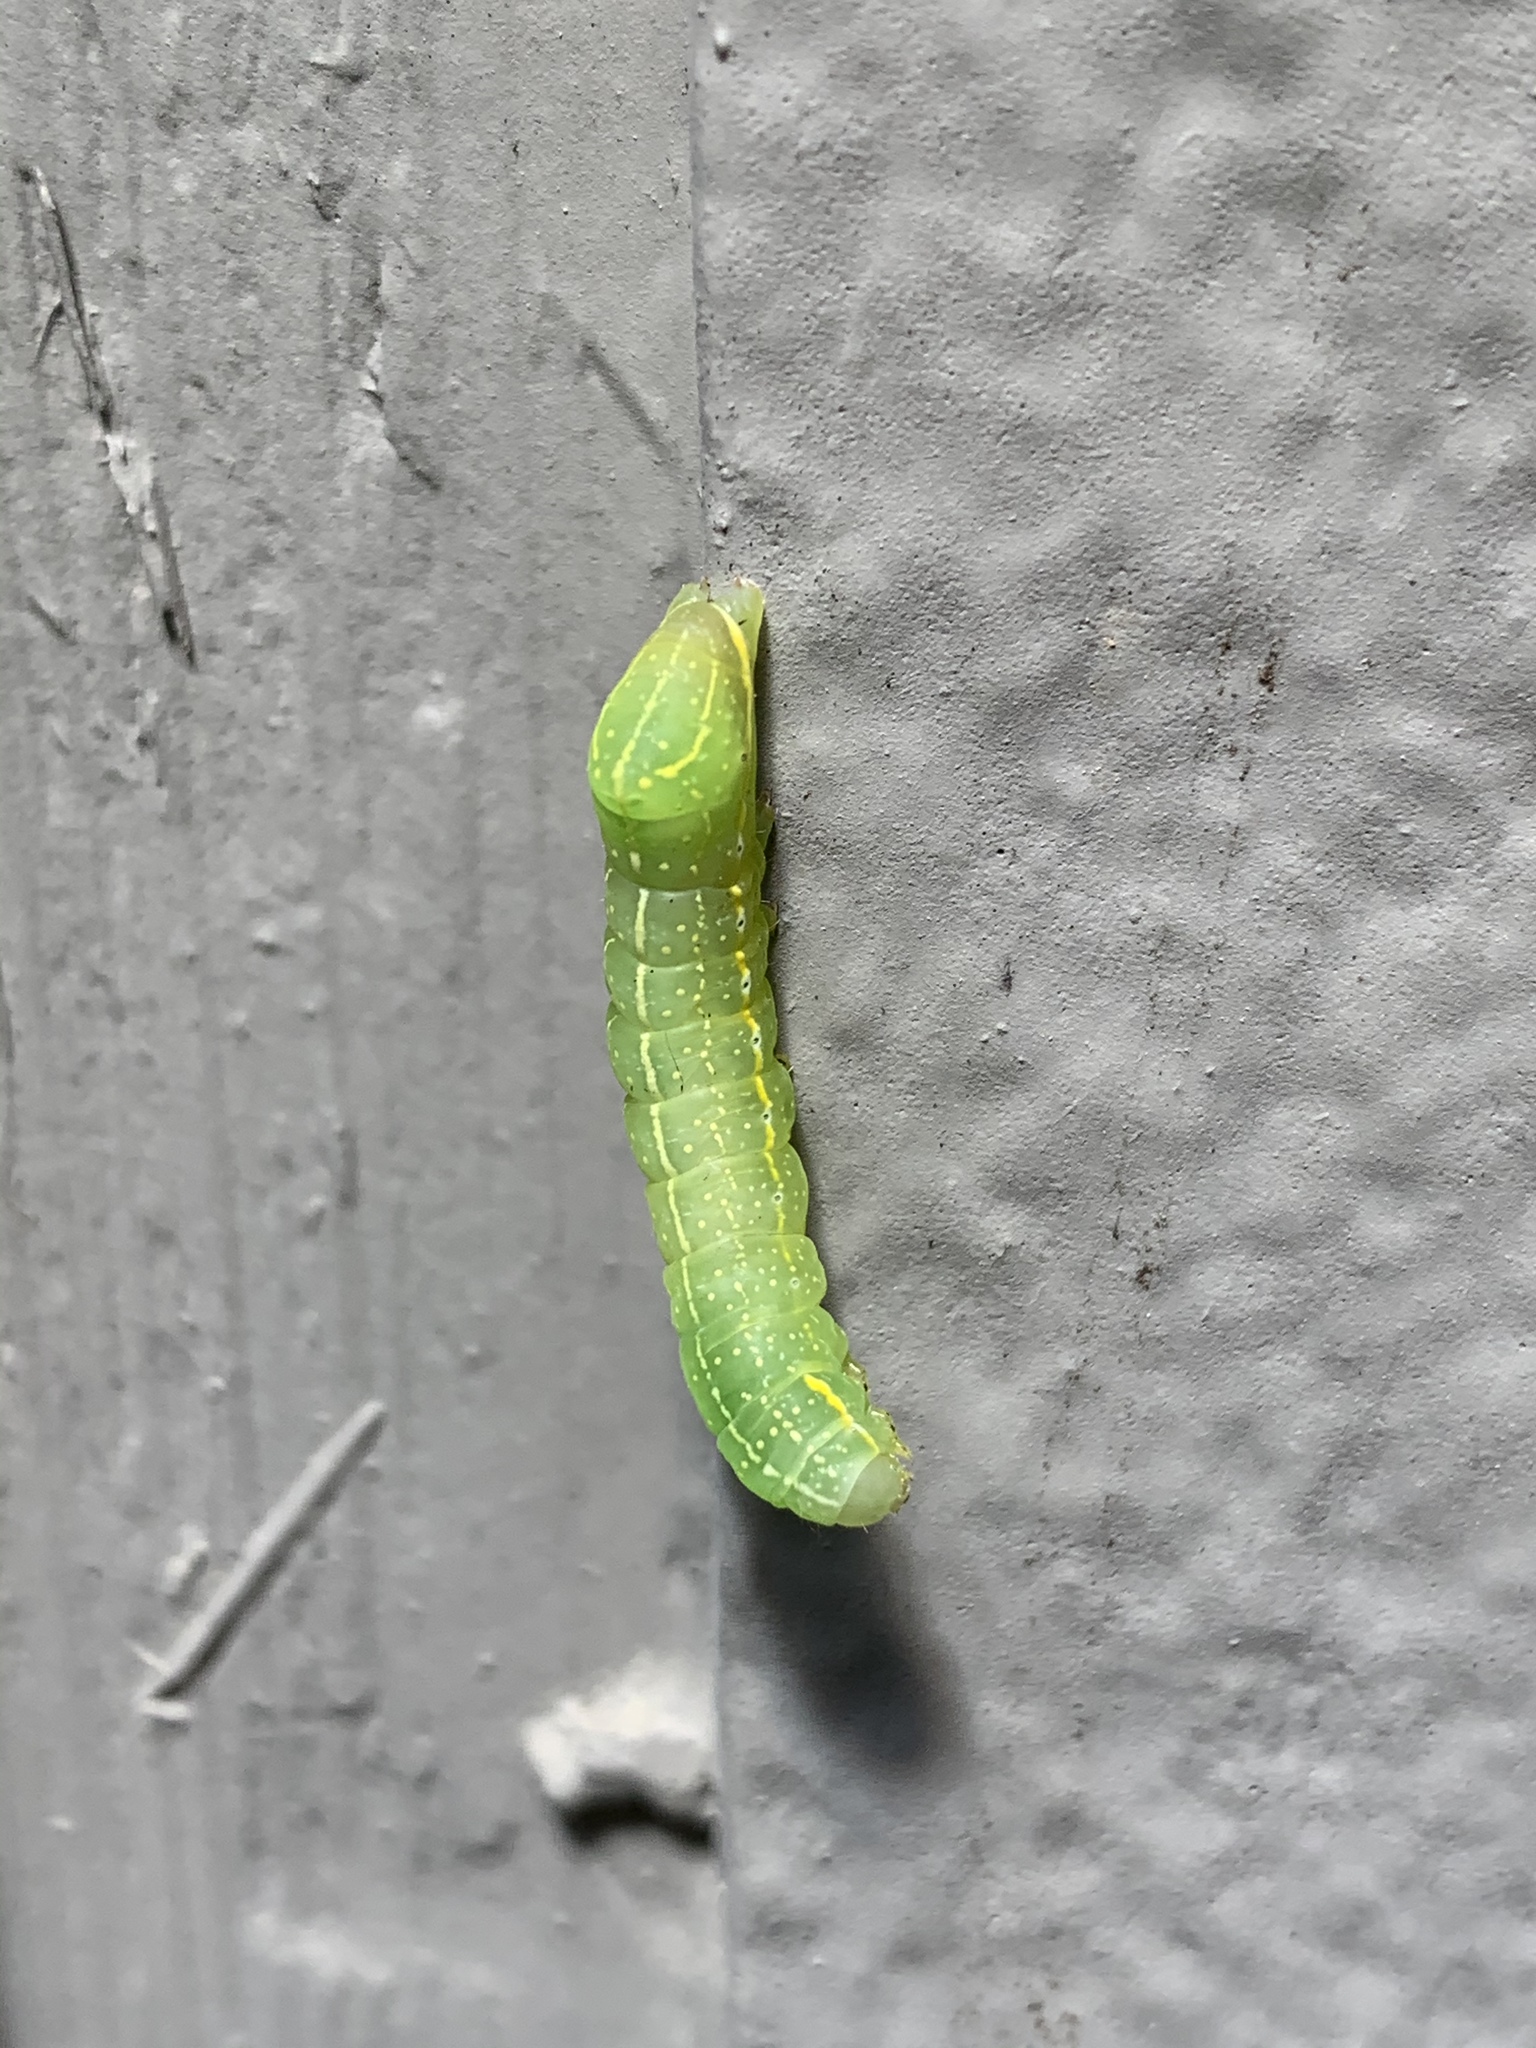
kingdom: Animalia
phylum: Arthropoda
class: Insecta
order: Lepidoptera
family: Noctuidae
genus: Amphipyra
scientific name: Amphipyra pyramidoides
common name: American copper underwing
